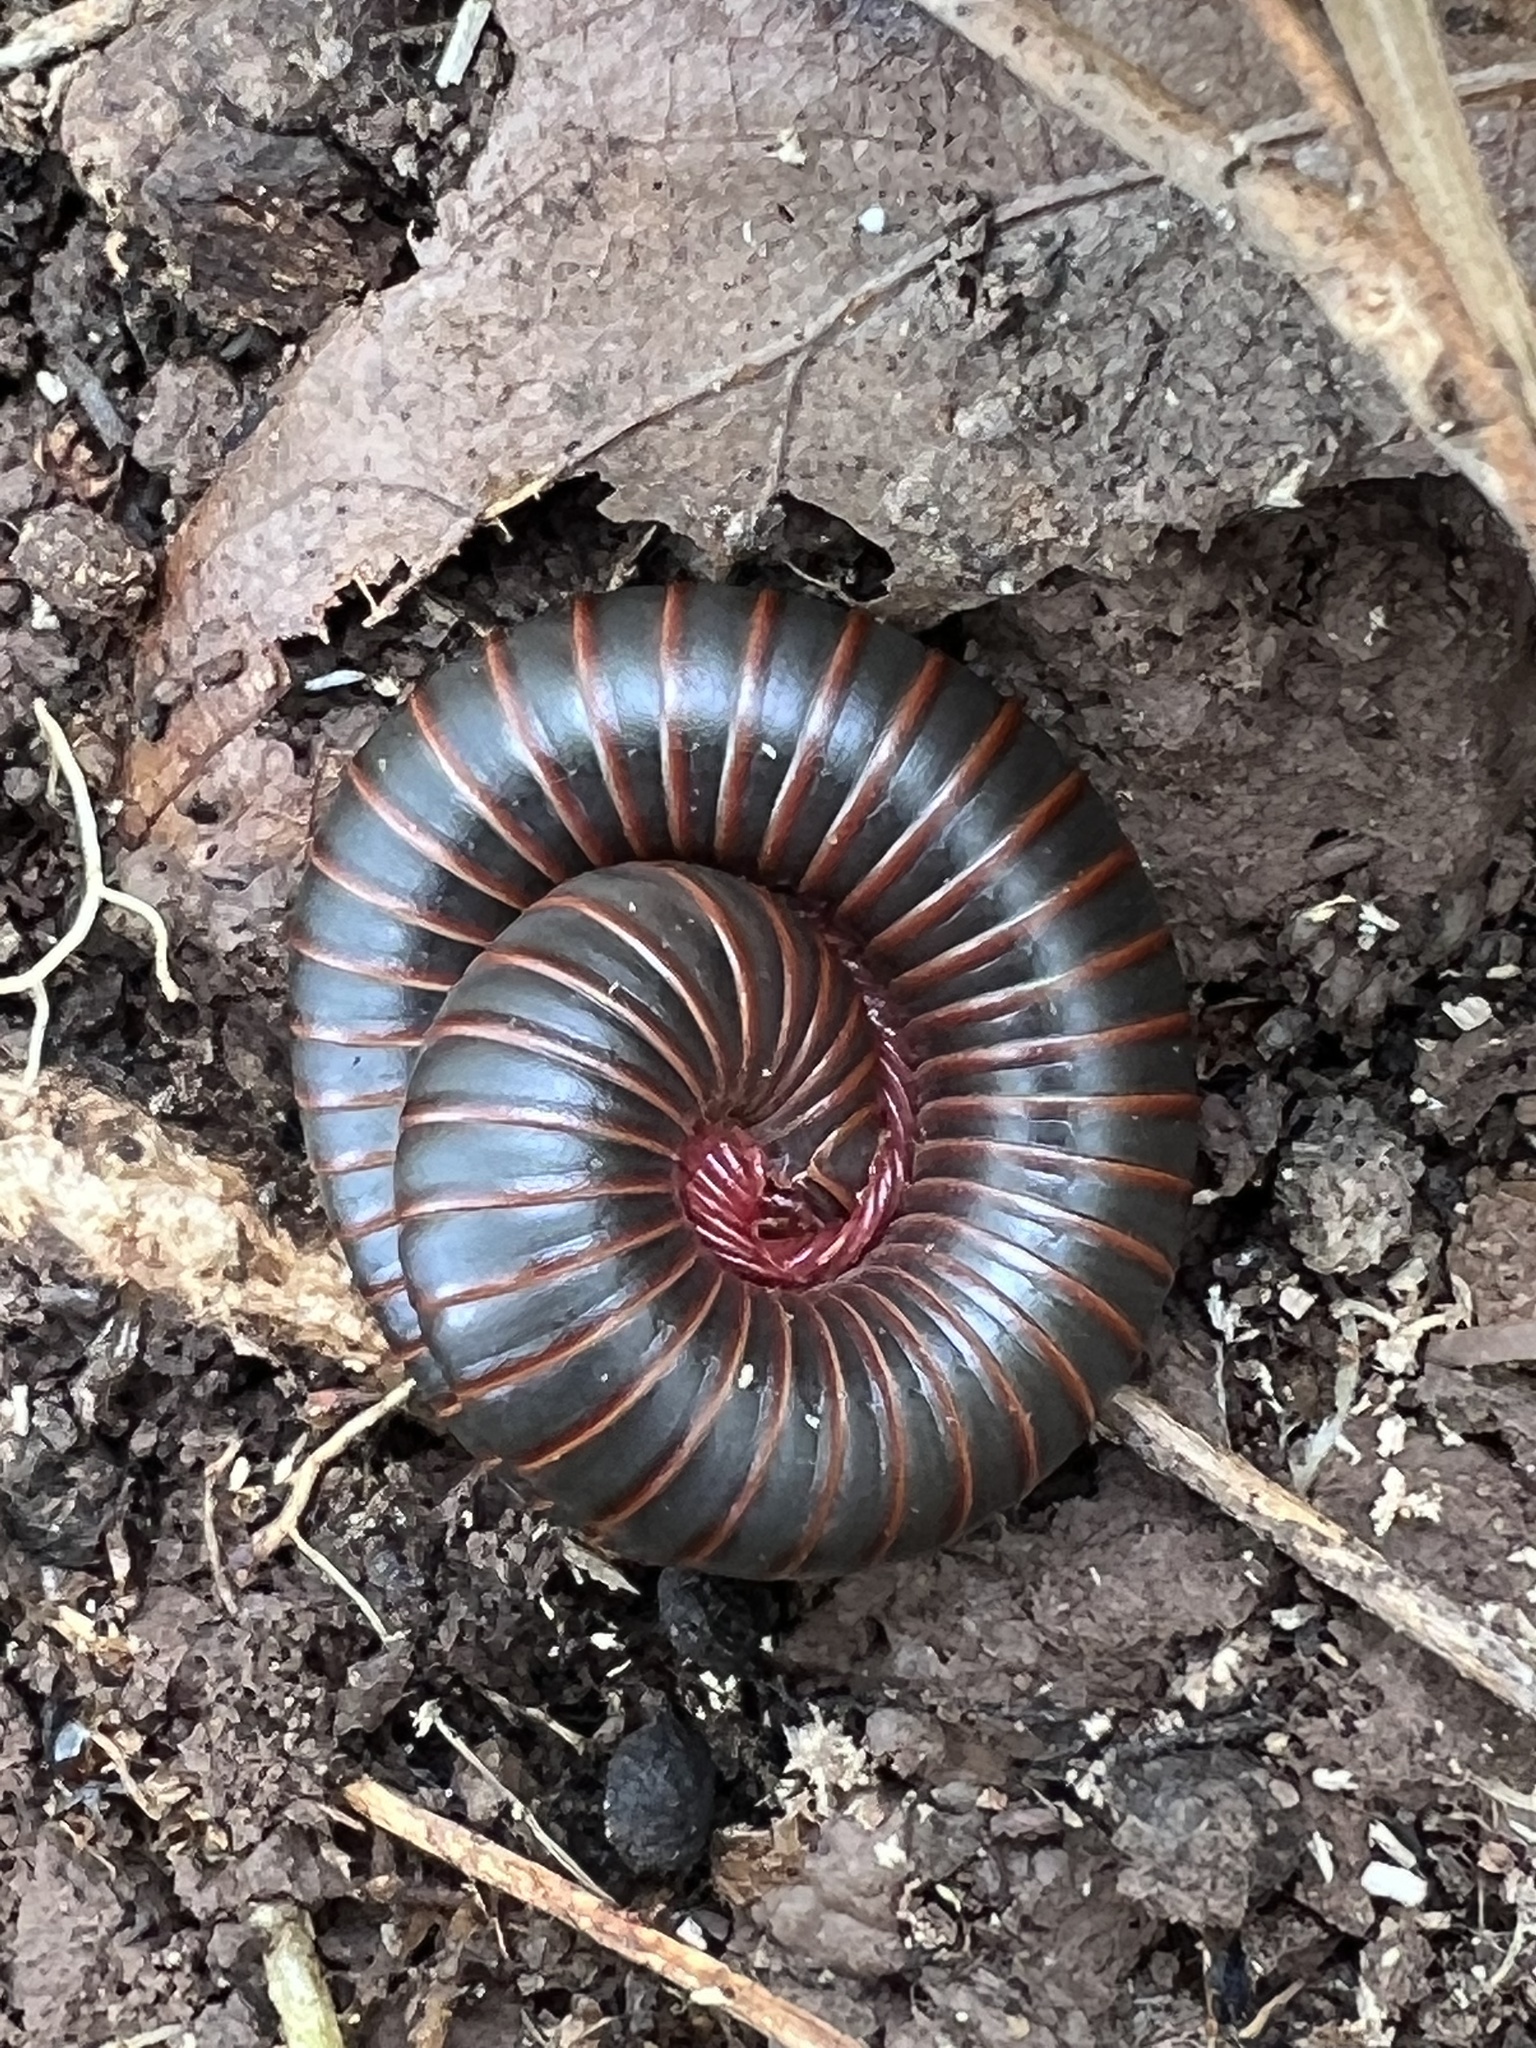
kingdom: Animalia
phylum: Arthropoda
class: Diplopoda
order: Spirobolida
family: Spirobolidae
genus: Narceus
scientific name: Narceus
